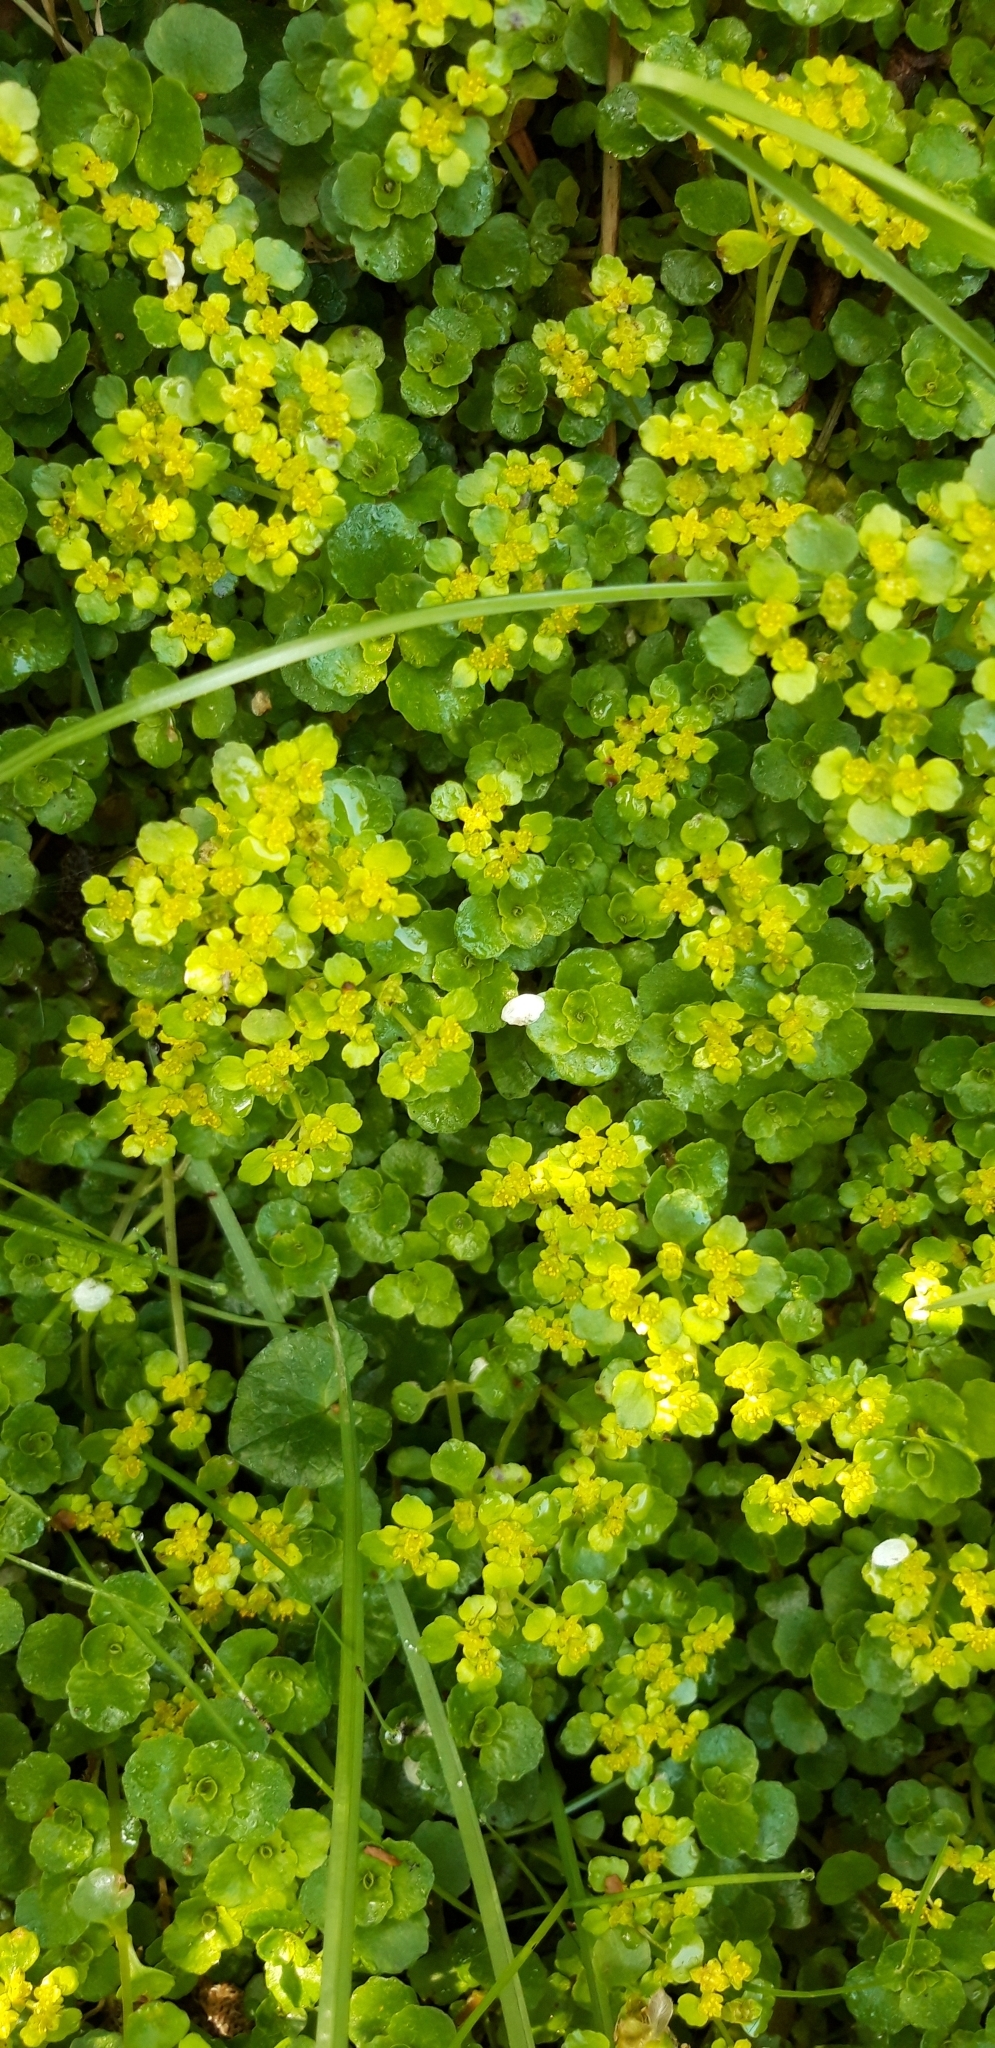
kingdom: Plantae
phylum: Tracheophyta
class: Magnoliopsida
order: Saxifragales
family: Saxifragaceae
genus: Chrysosplenium
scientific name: Chrysosplenium oppositifolium
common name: Opposite-leaved golden-saxifrage
